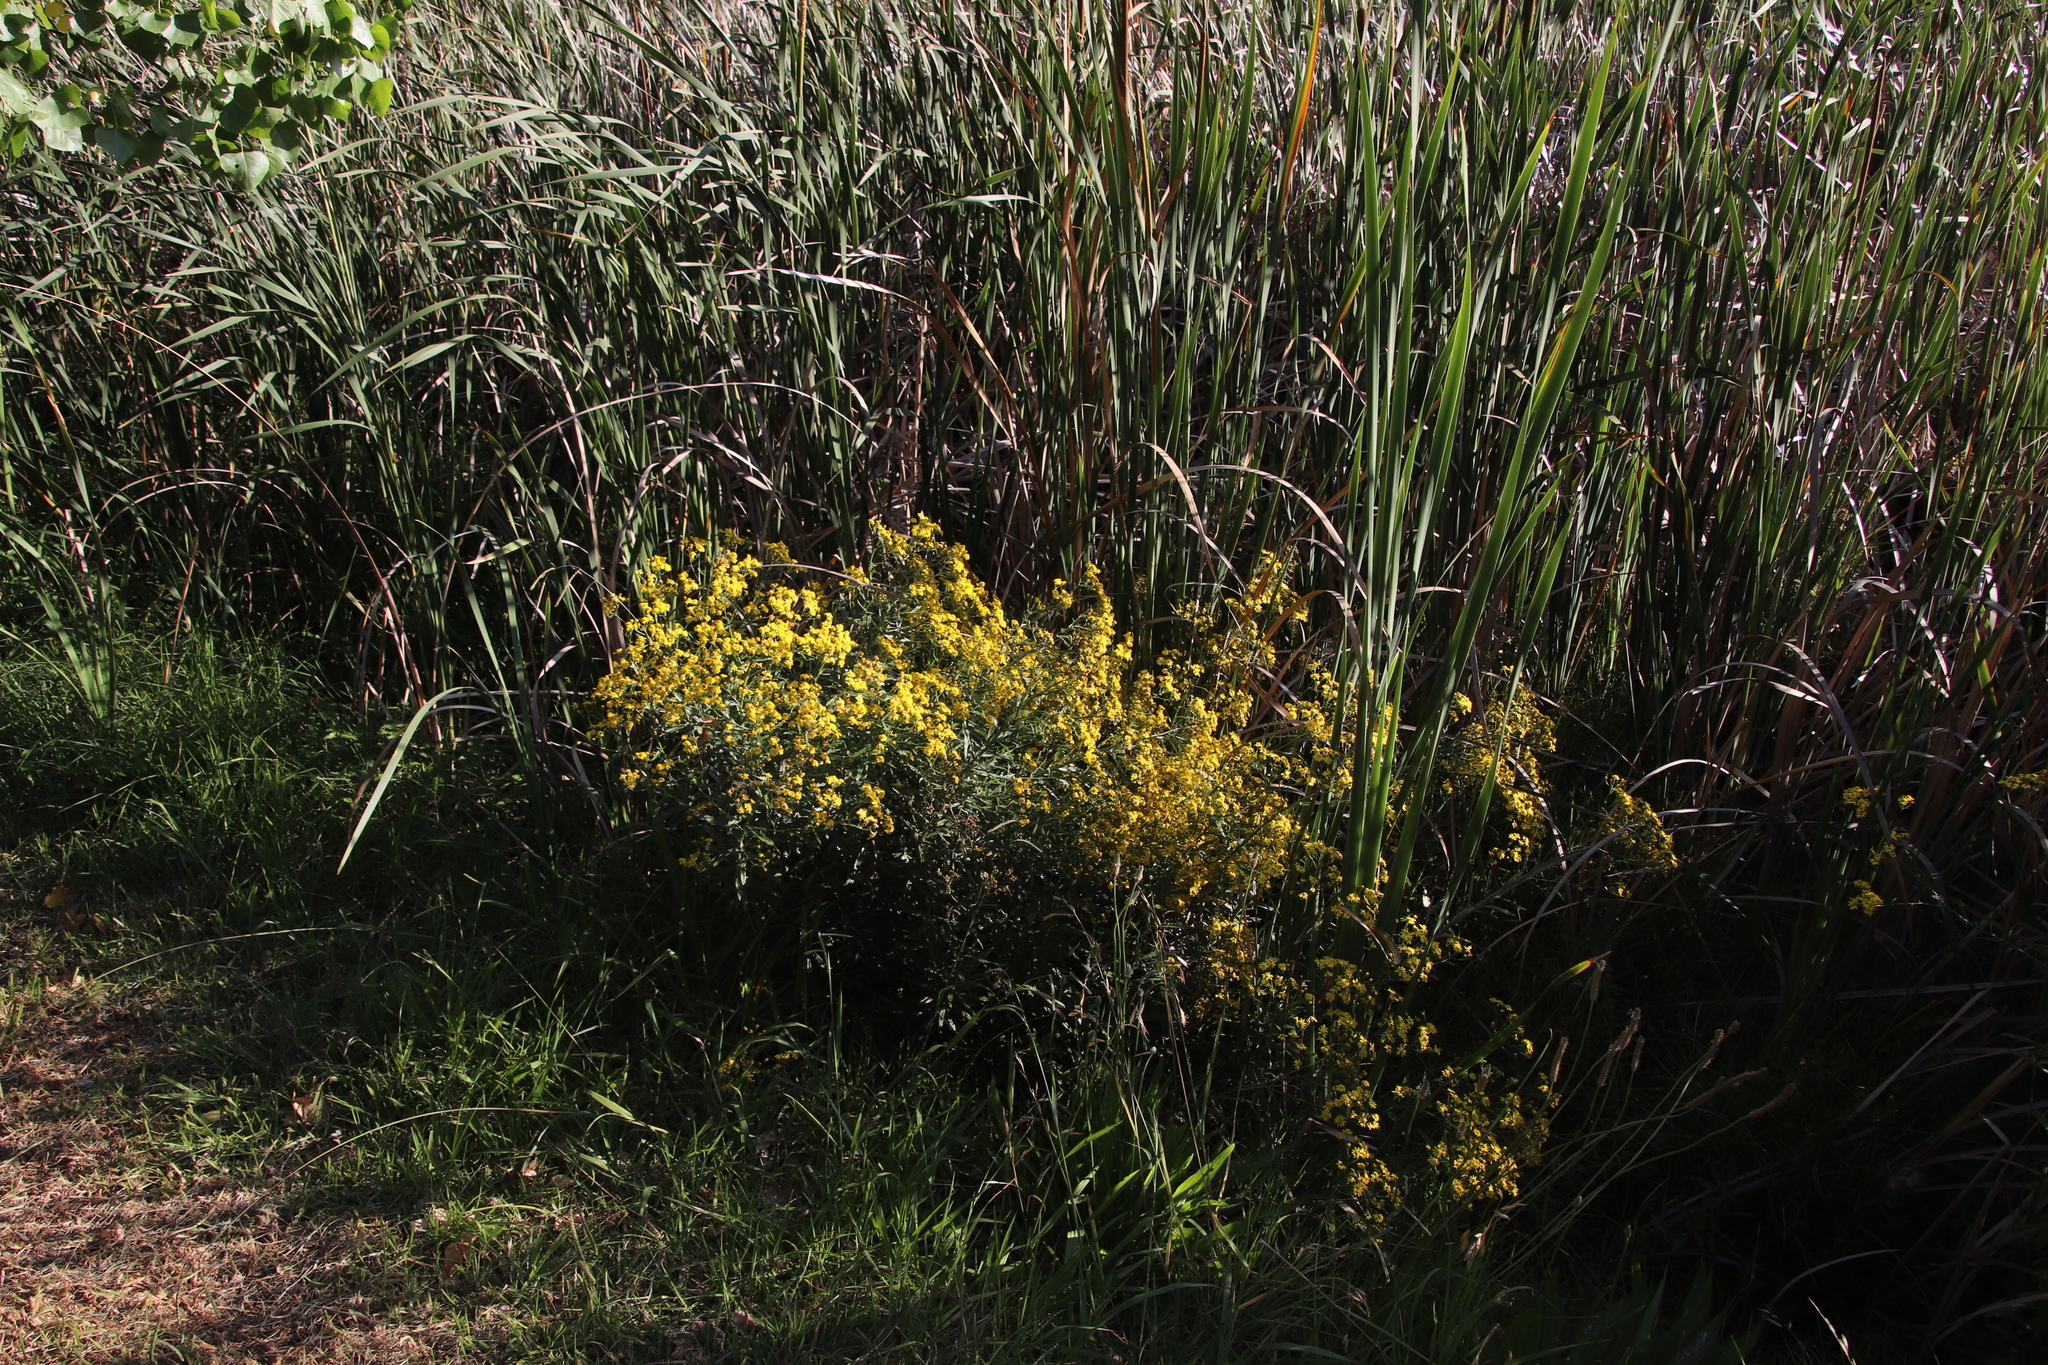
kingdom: Plantae
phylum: Tracheophyta
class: Magnoliopsida
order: Asterales
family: Asteraceae
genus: Senecio
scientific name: Senecio pterophorus
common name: Shoddy ragwort
